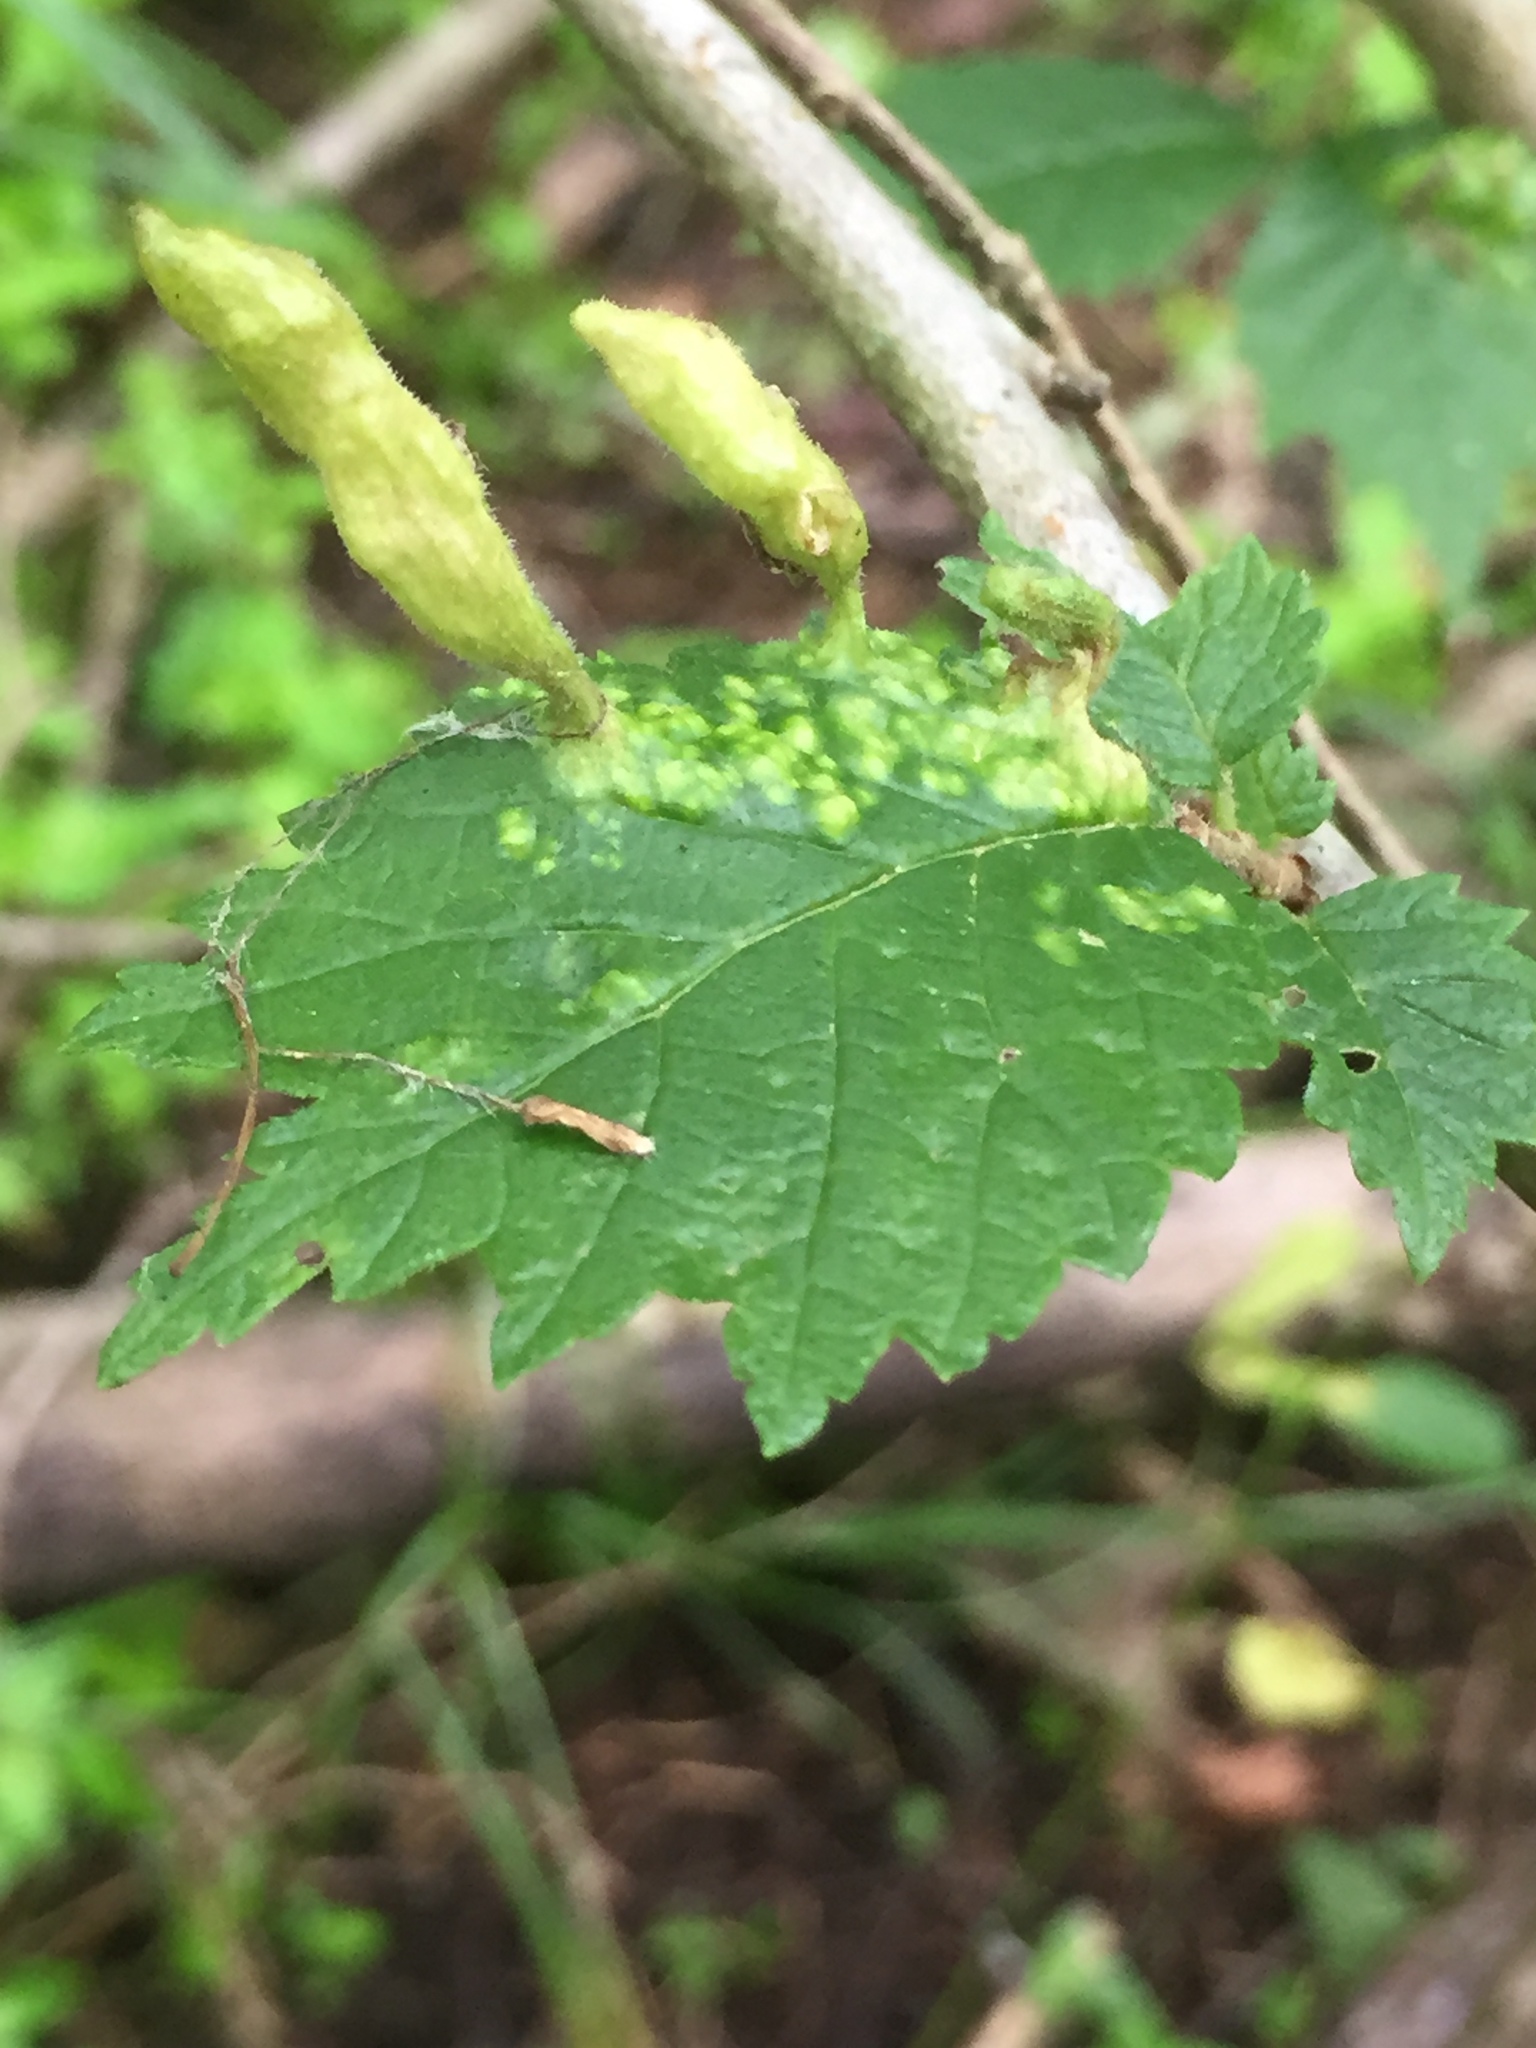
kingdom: Animalia
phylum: Arthropoda
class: Insecta
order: Hemiptera
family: Aphididae
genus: Tetraneura
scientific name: Tetraneura nigriabdominalis
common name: Aphid
